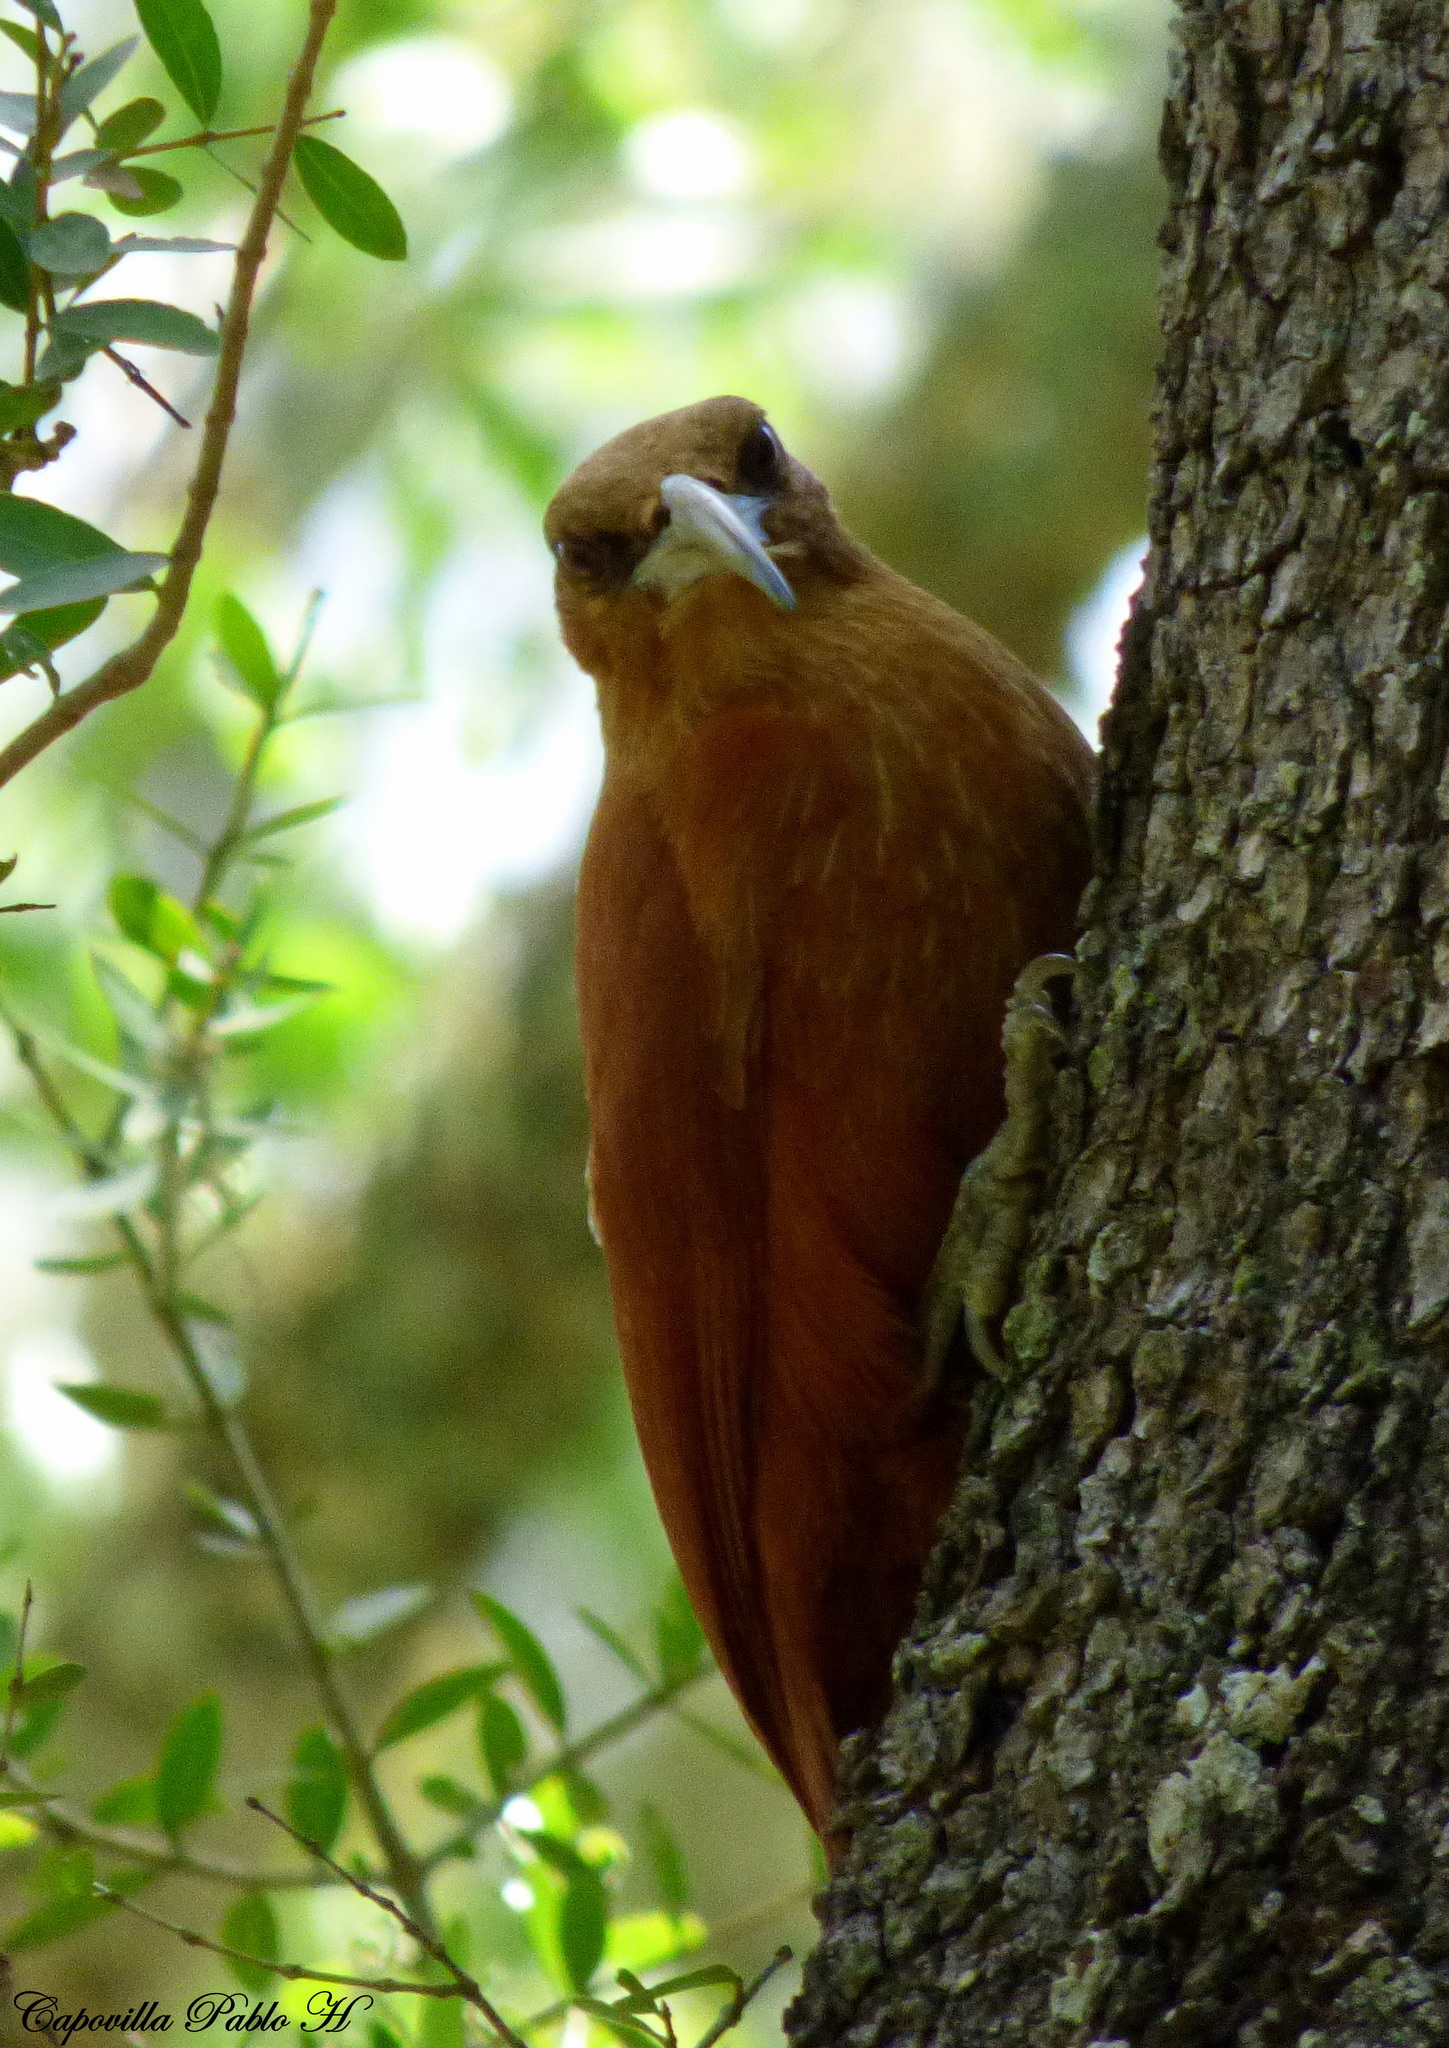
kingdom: Animalia
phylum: Chordata
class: Aves
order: Passeriformes
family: Furnariidae
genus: Xiphocolaptes
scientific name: Xiphocolaptes major
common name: Great rufous woodcreeper
